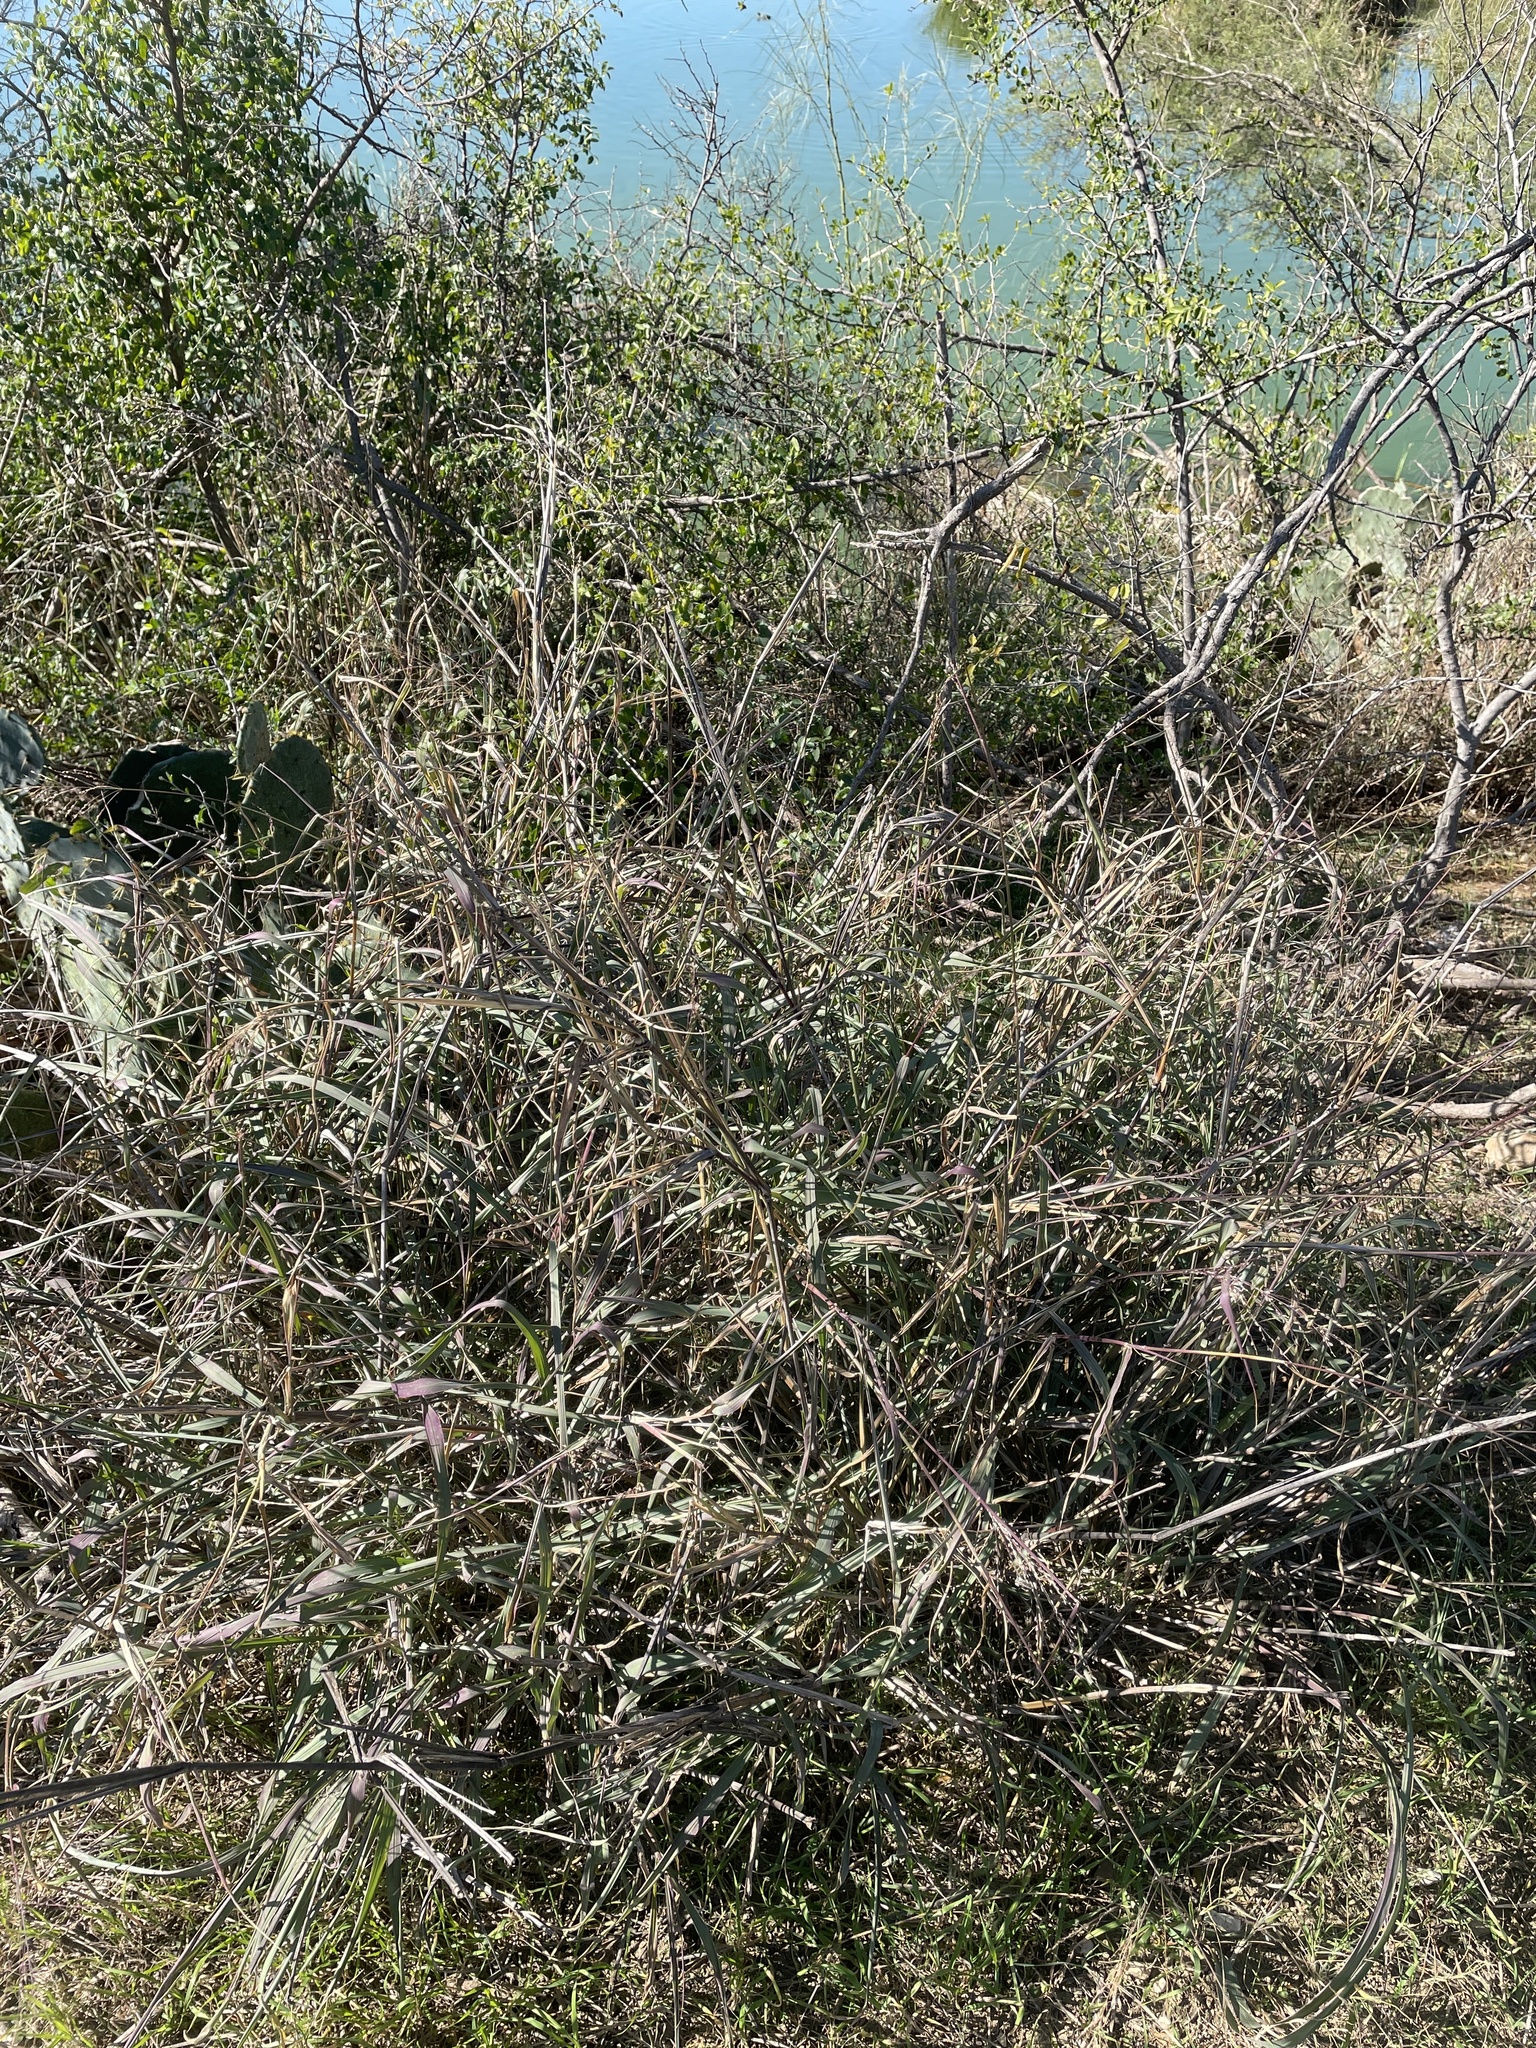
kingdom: Plantae
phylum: Tracheophyta
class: Liliopsida
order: Poales
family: Poaceae
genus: Megathyrsus
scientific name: Megathyrsus maximus
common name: Guineagrass
